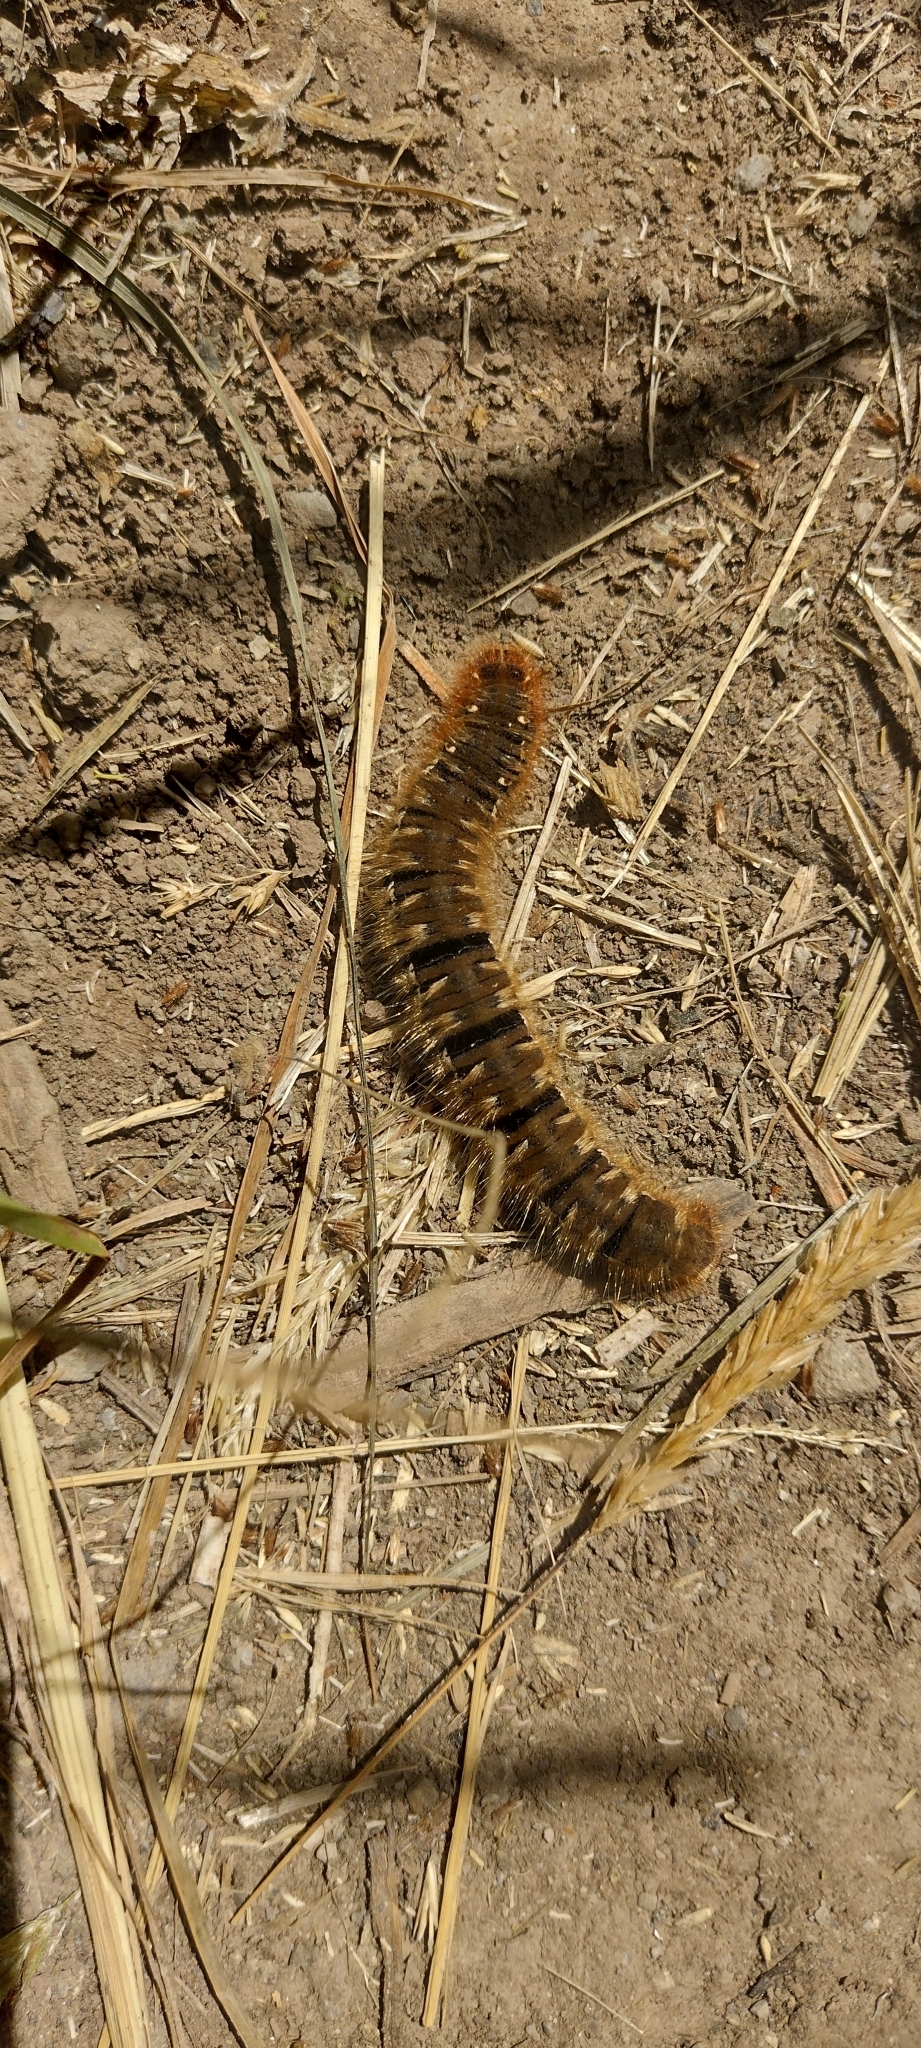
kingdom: Animalia
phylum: Arthropoda
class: Insecta
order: Lepidoptera
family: Lasiocampidae
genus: Lasiocampa
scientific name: Lasiocampa quercus
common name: Oak eggar
